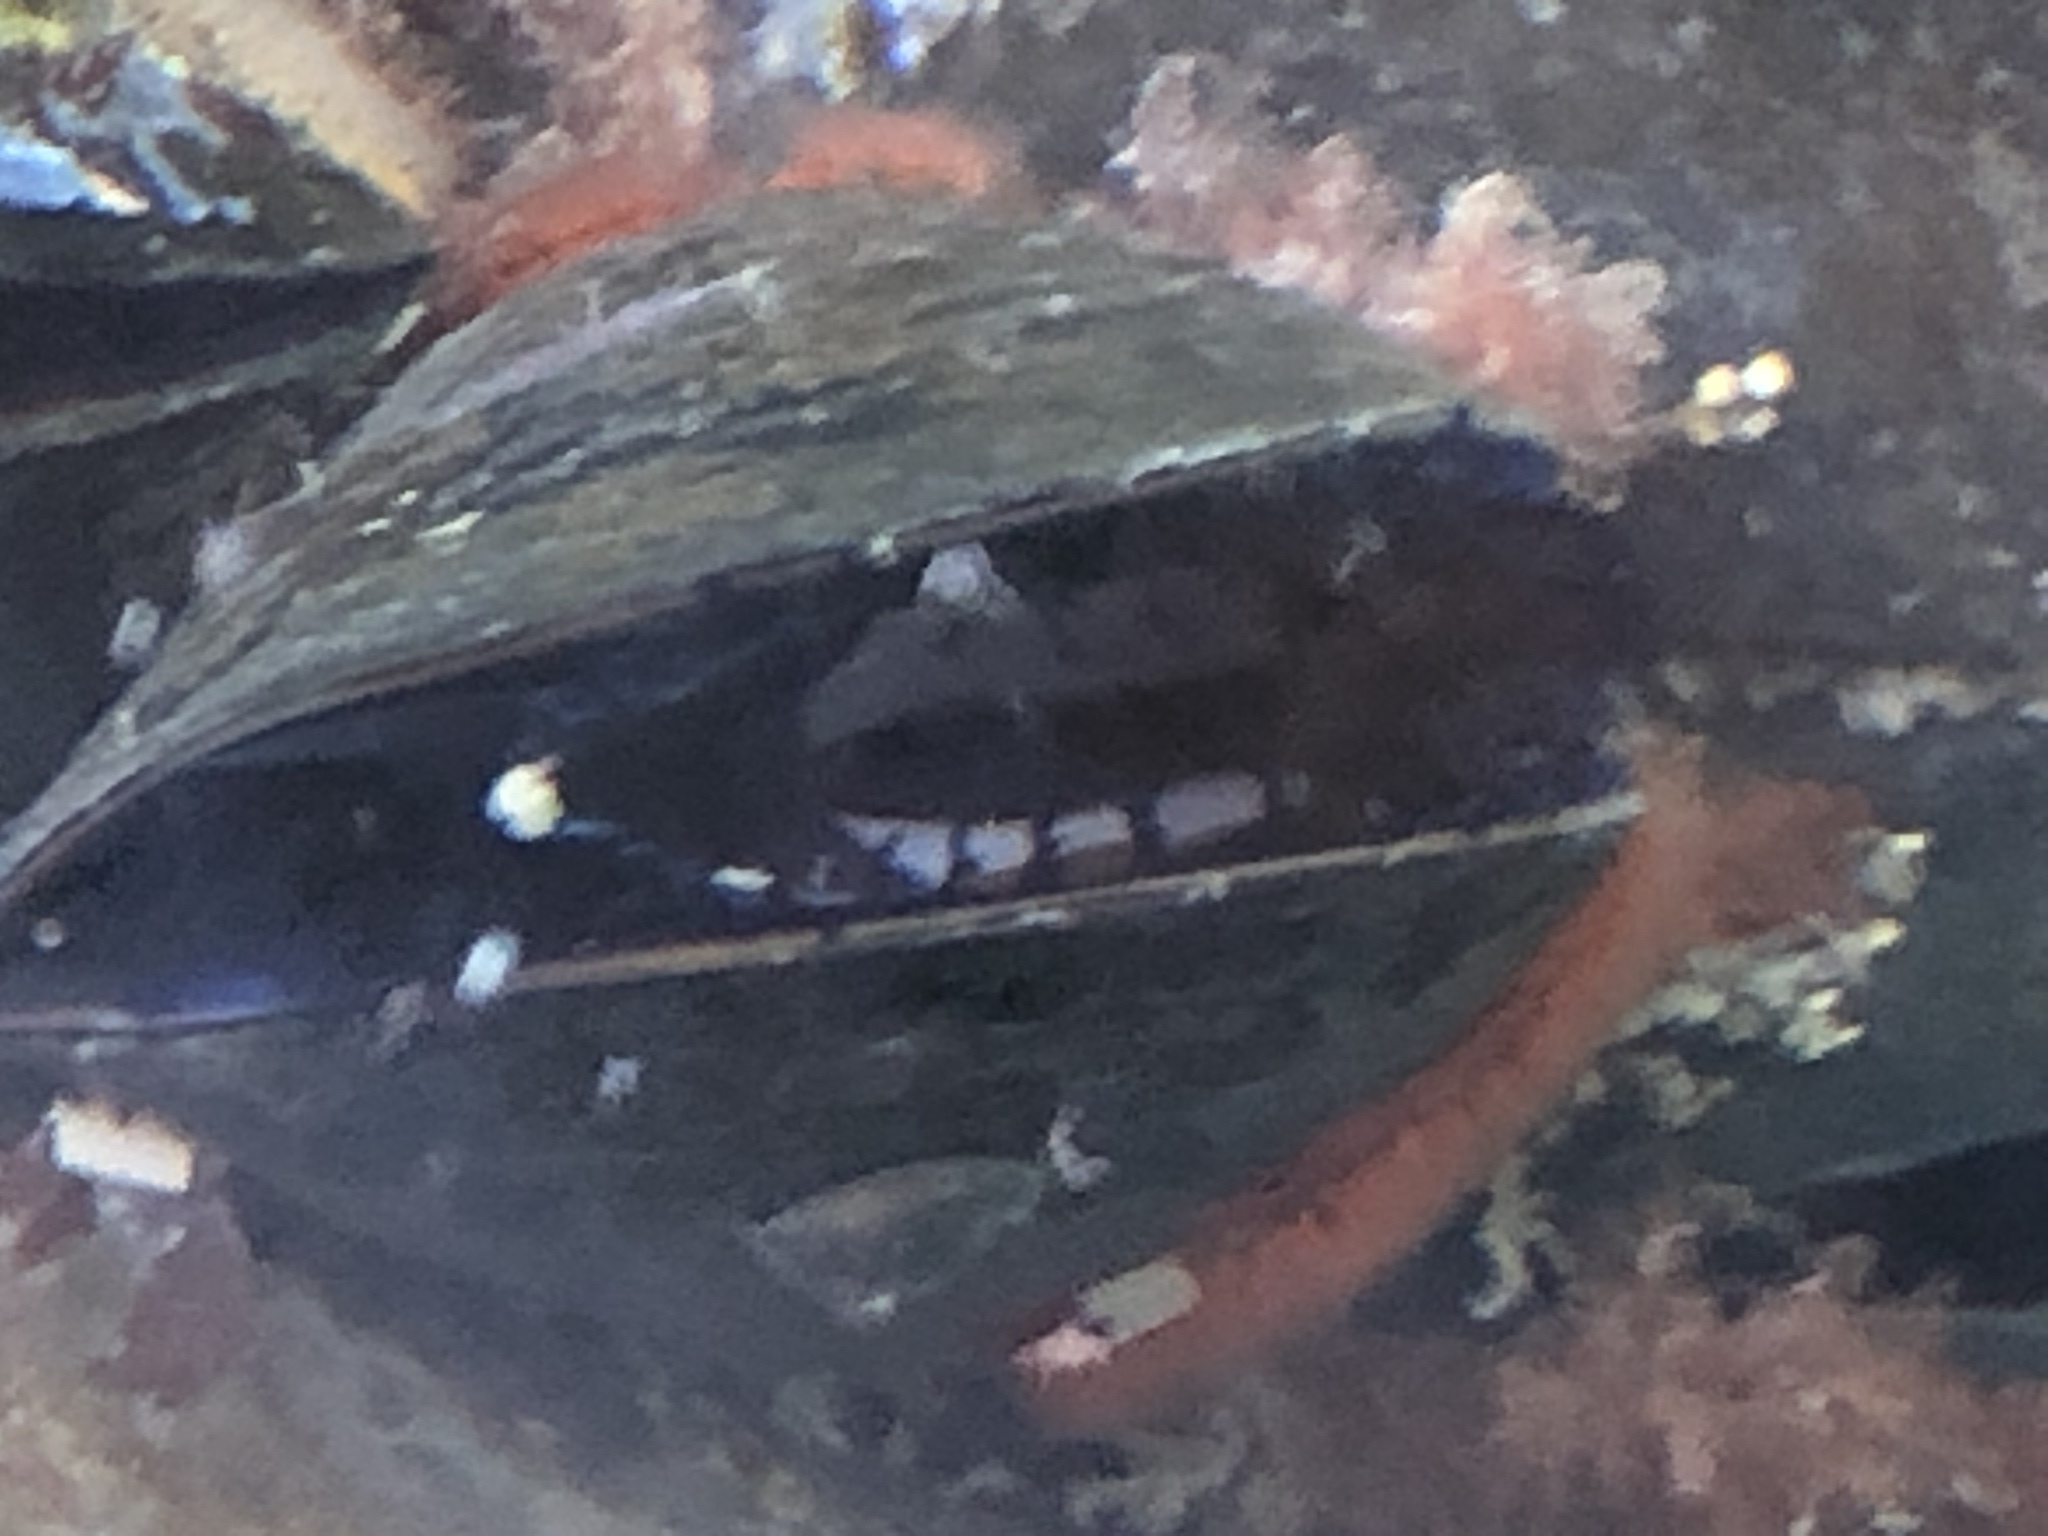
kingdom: Animalia
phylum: Mollusca
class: Bivalvia
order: Mytilida
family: Mytilidae
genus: Mytilus
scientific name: Mytilus
